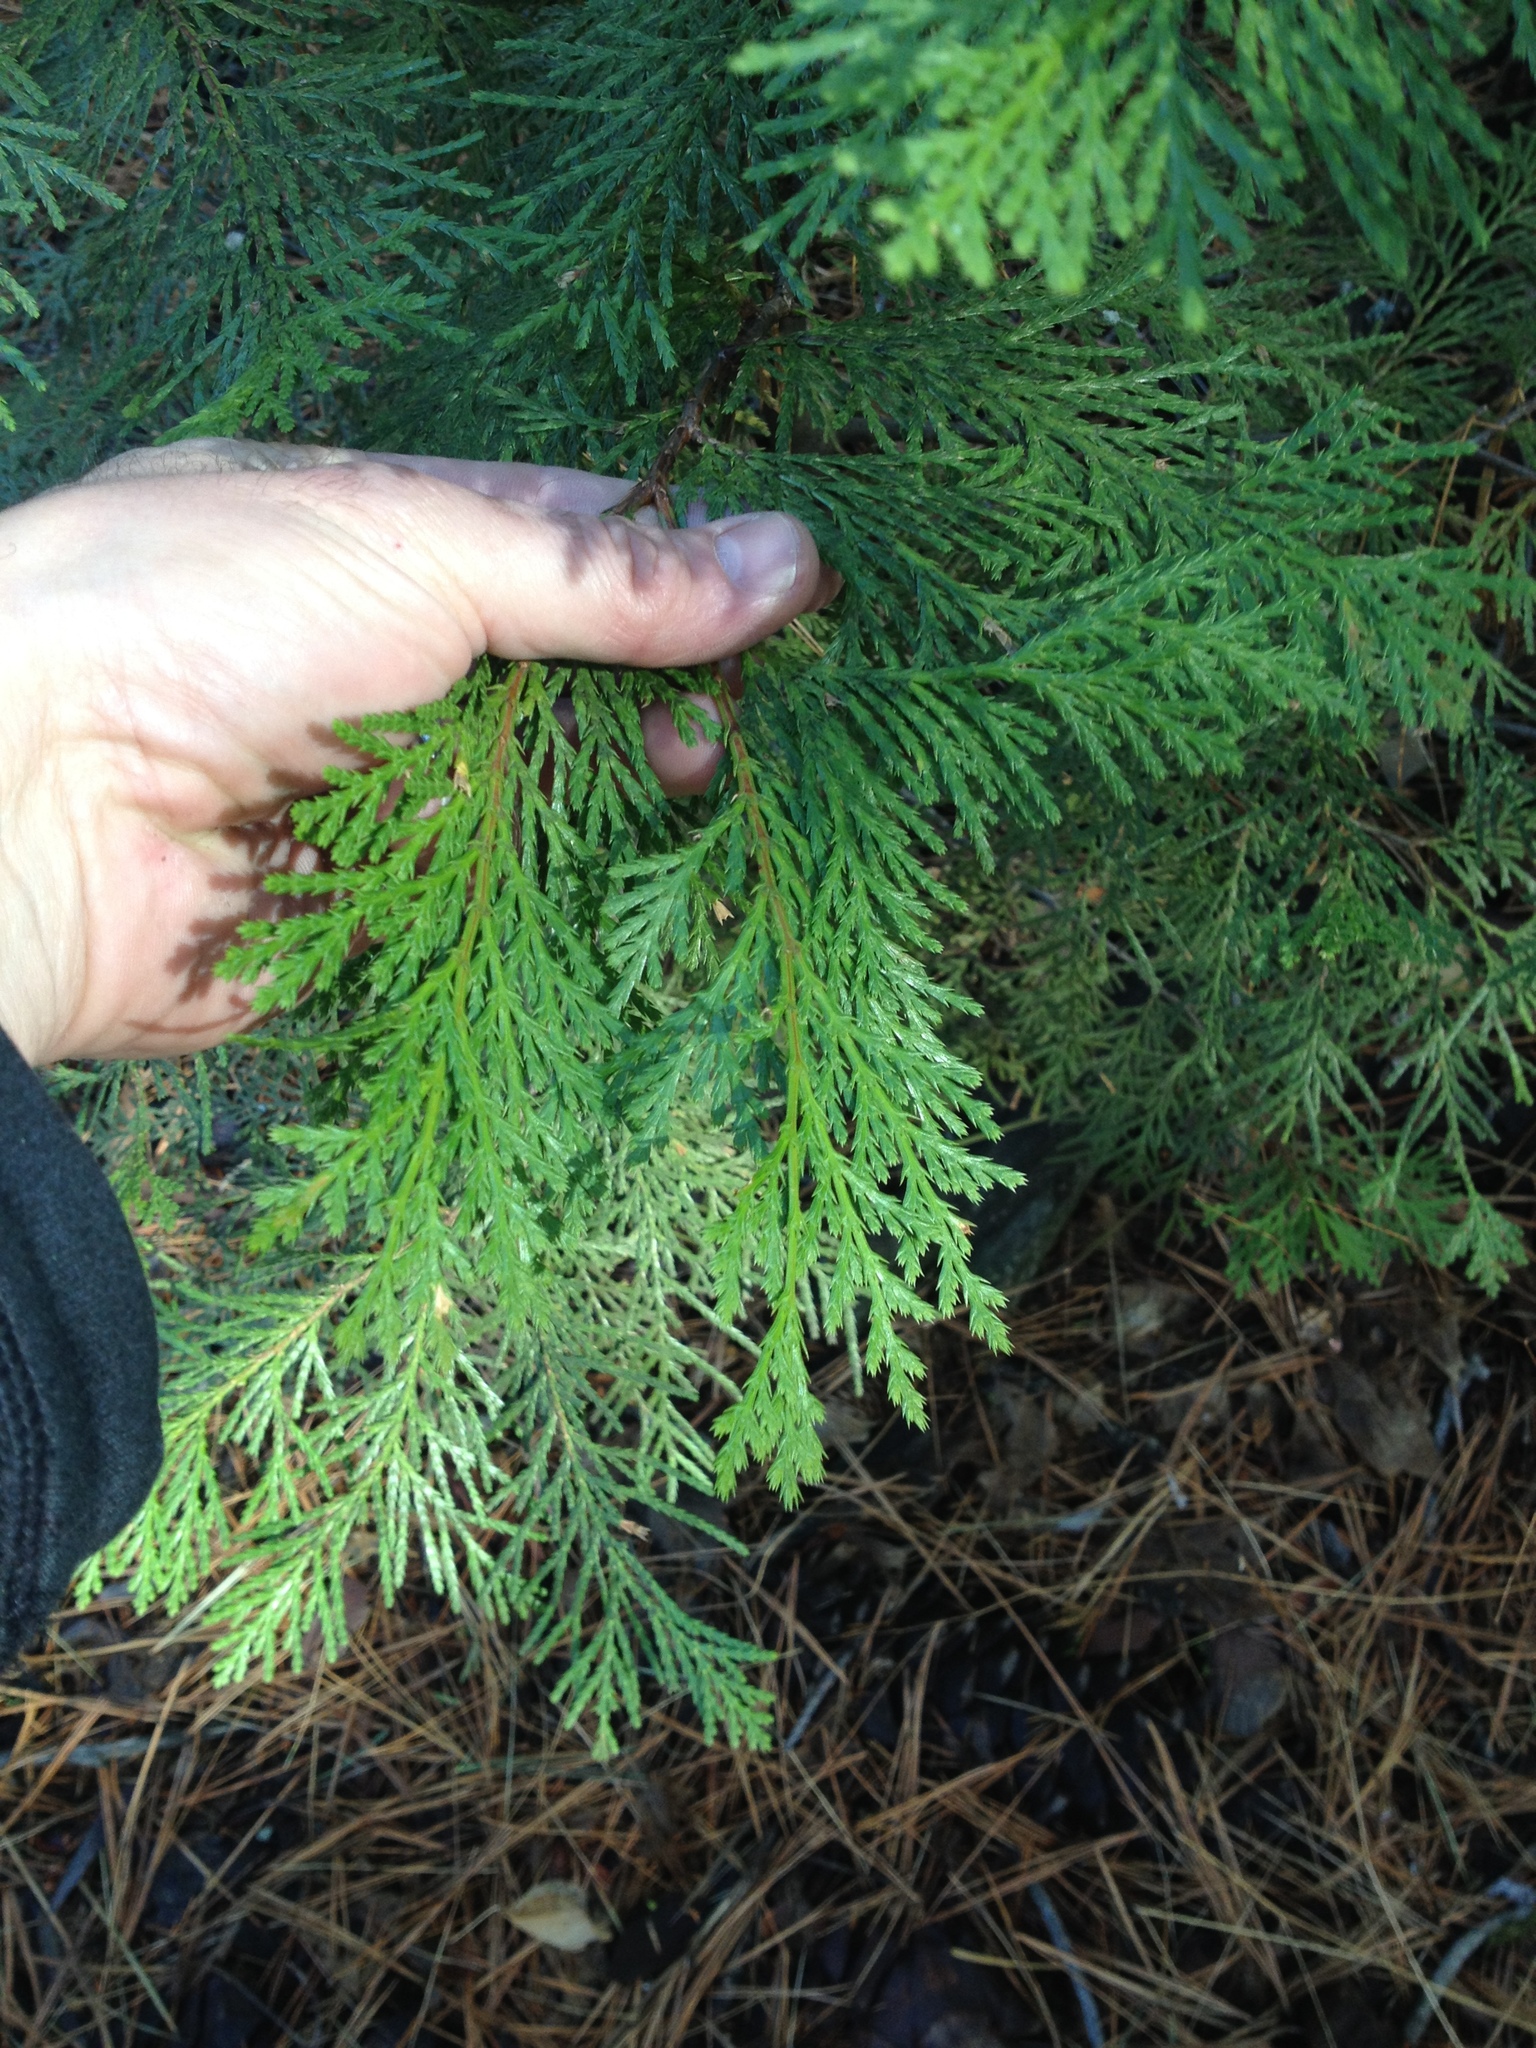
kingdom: Plantae
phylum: Tracheophyta
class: Pinopsida
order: Pinales
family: Cupressaceae
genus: Calocedrus
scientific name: Calocedrus decurrens
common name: Californian incense-cedar
